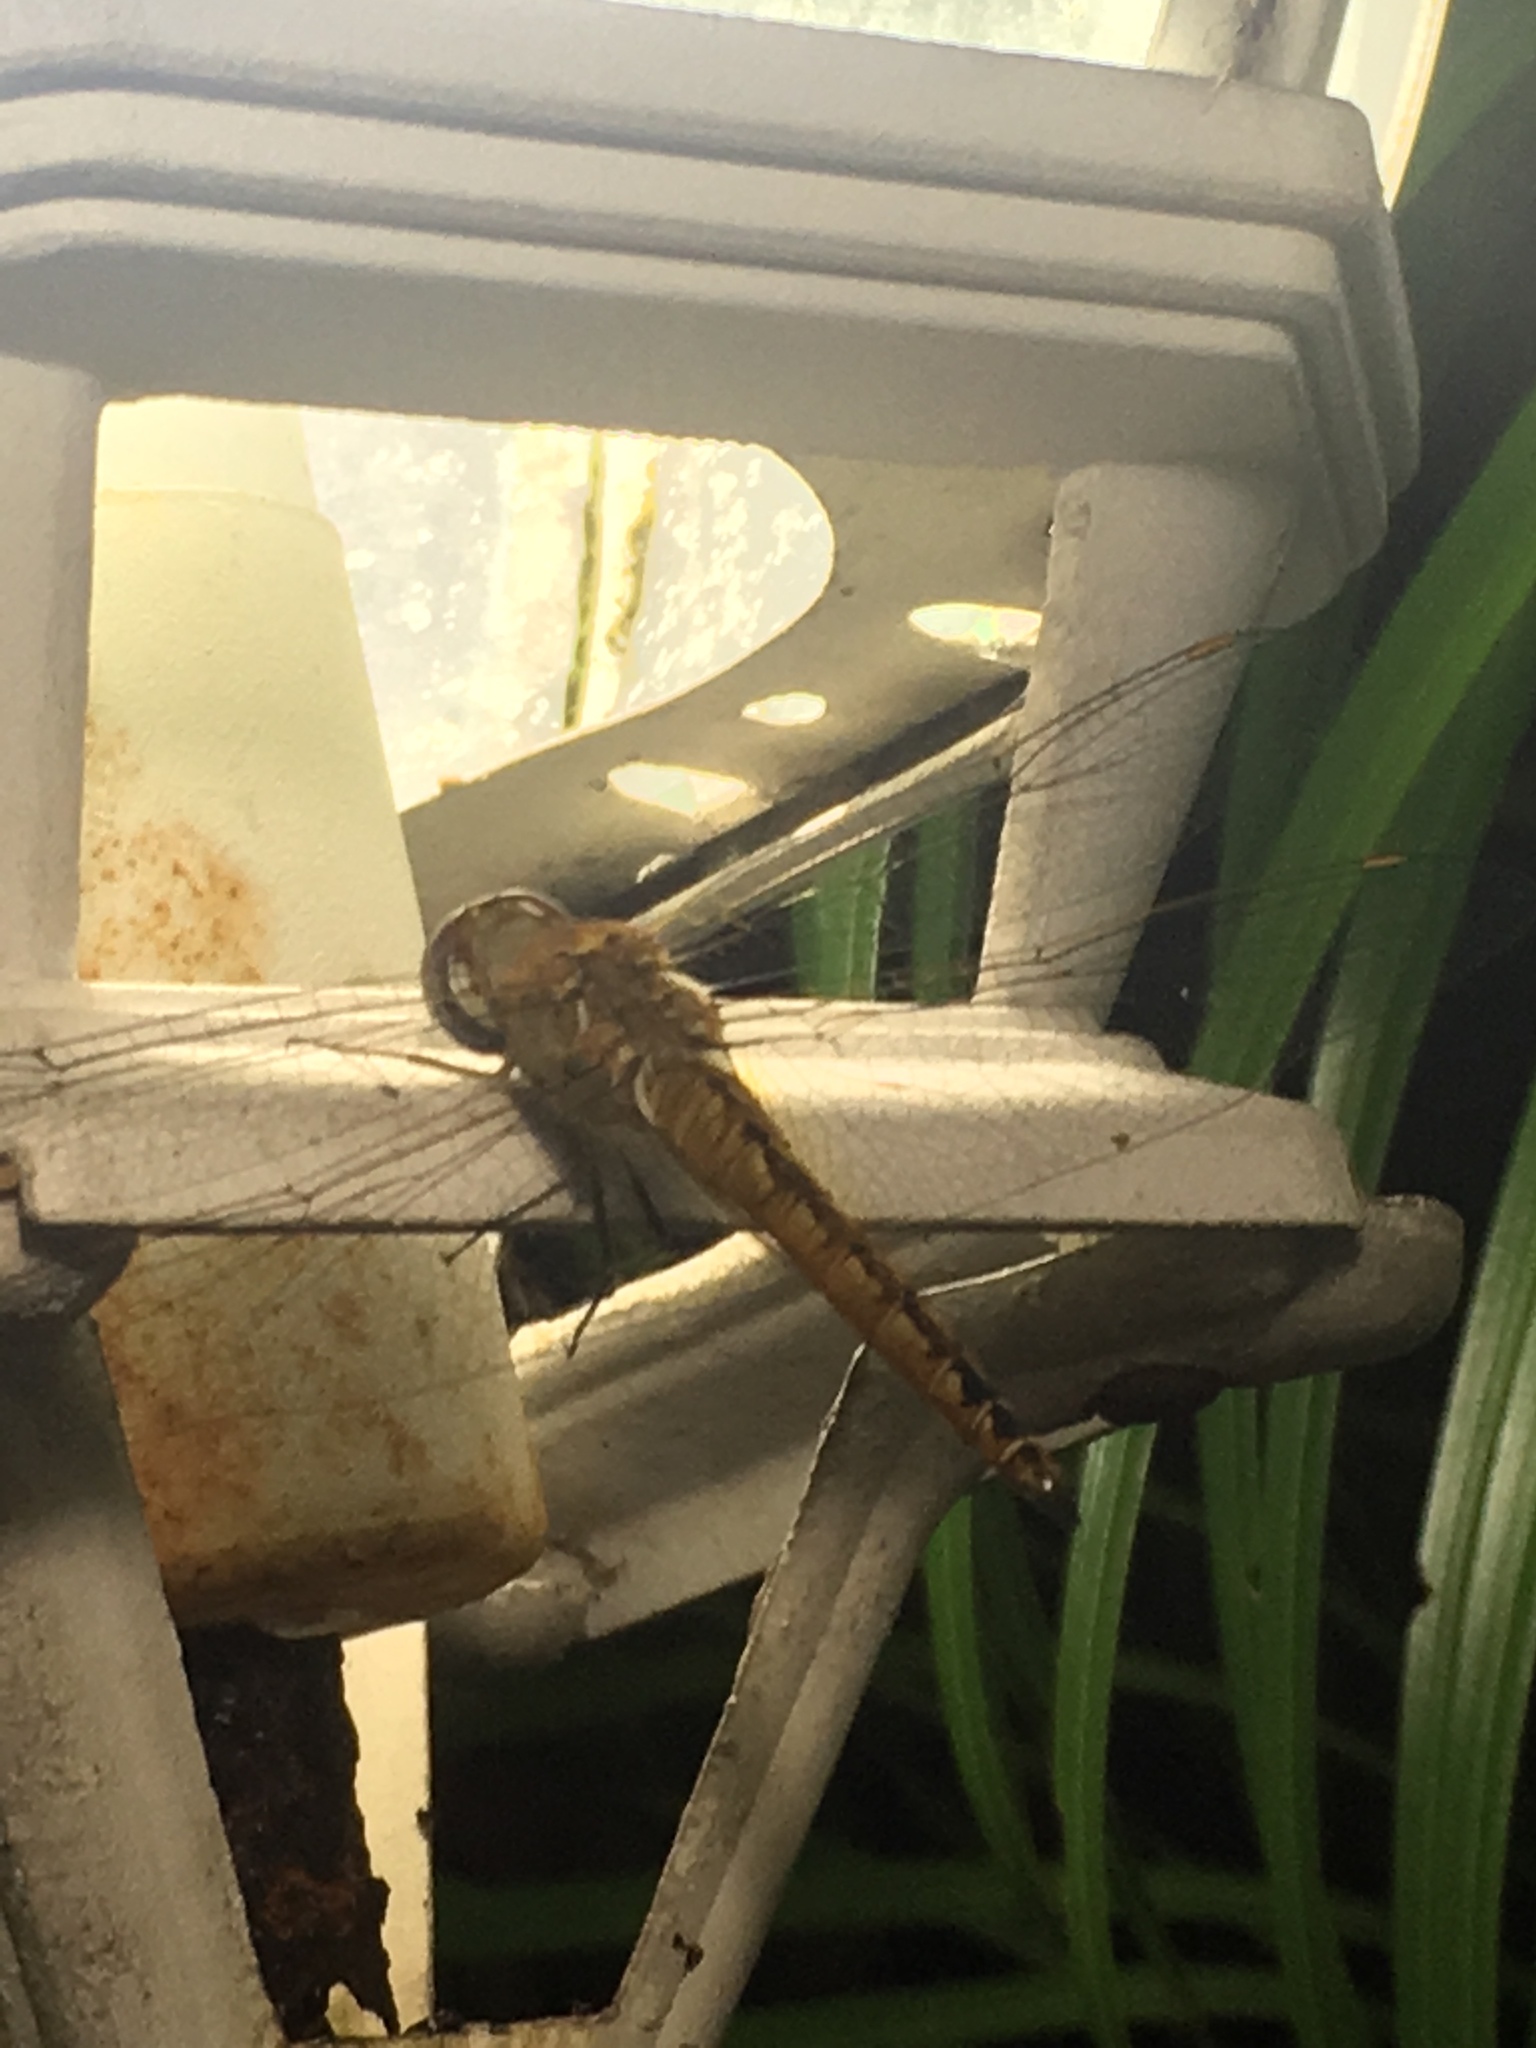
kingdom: Animalia
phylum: Arthropoda
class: Insecta
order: Odonata
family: Libellulidae
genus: Pantala
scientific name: Pantala flavescens
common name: Wandering glider
